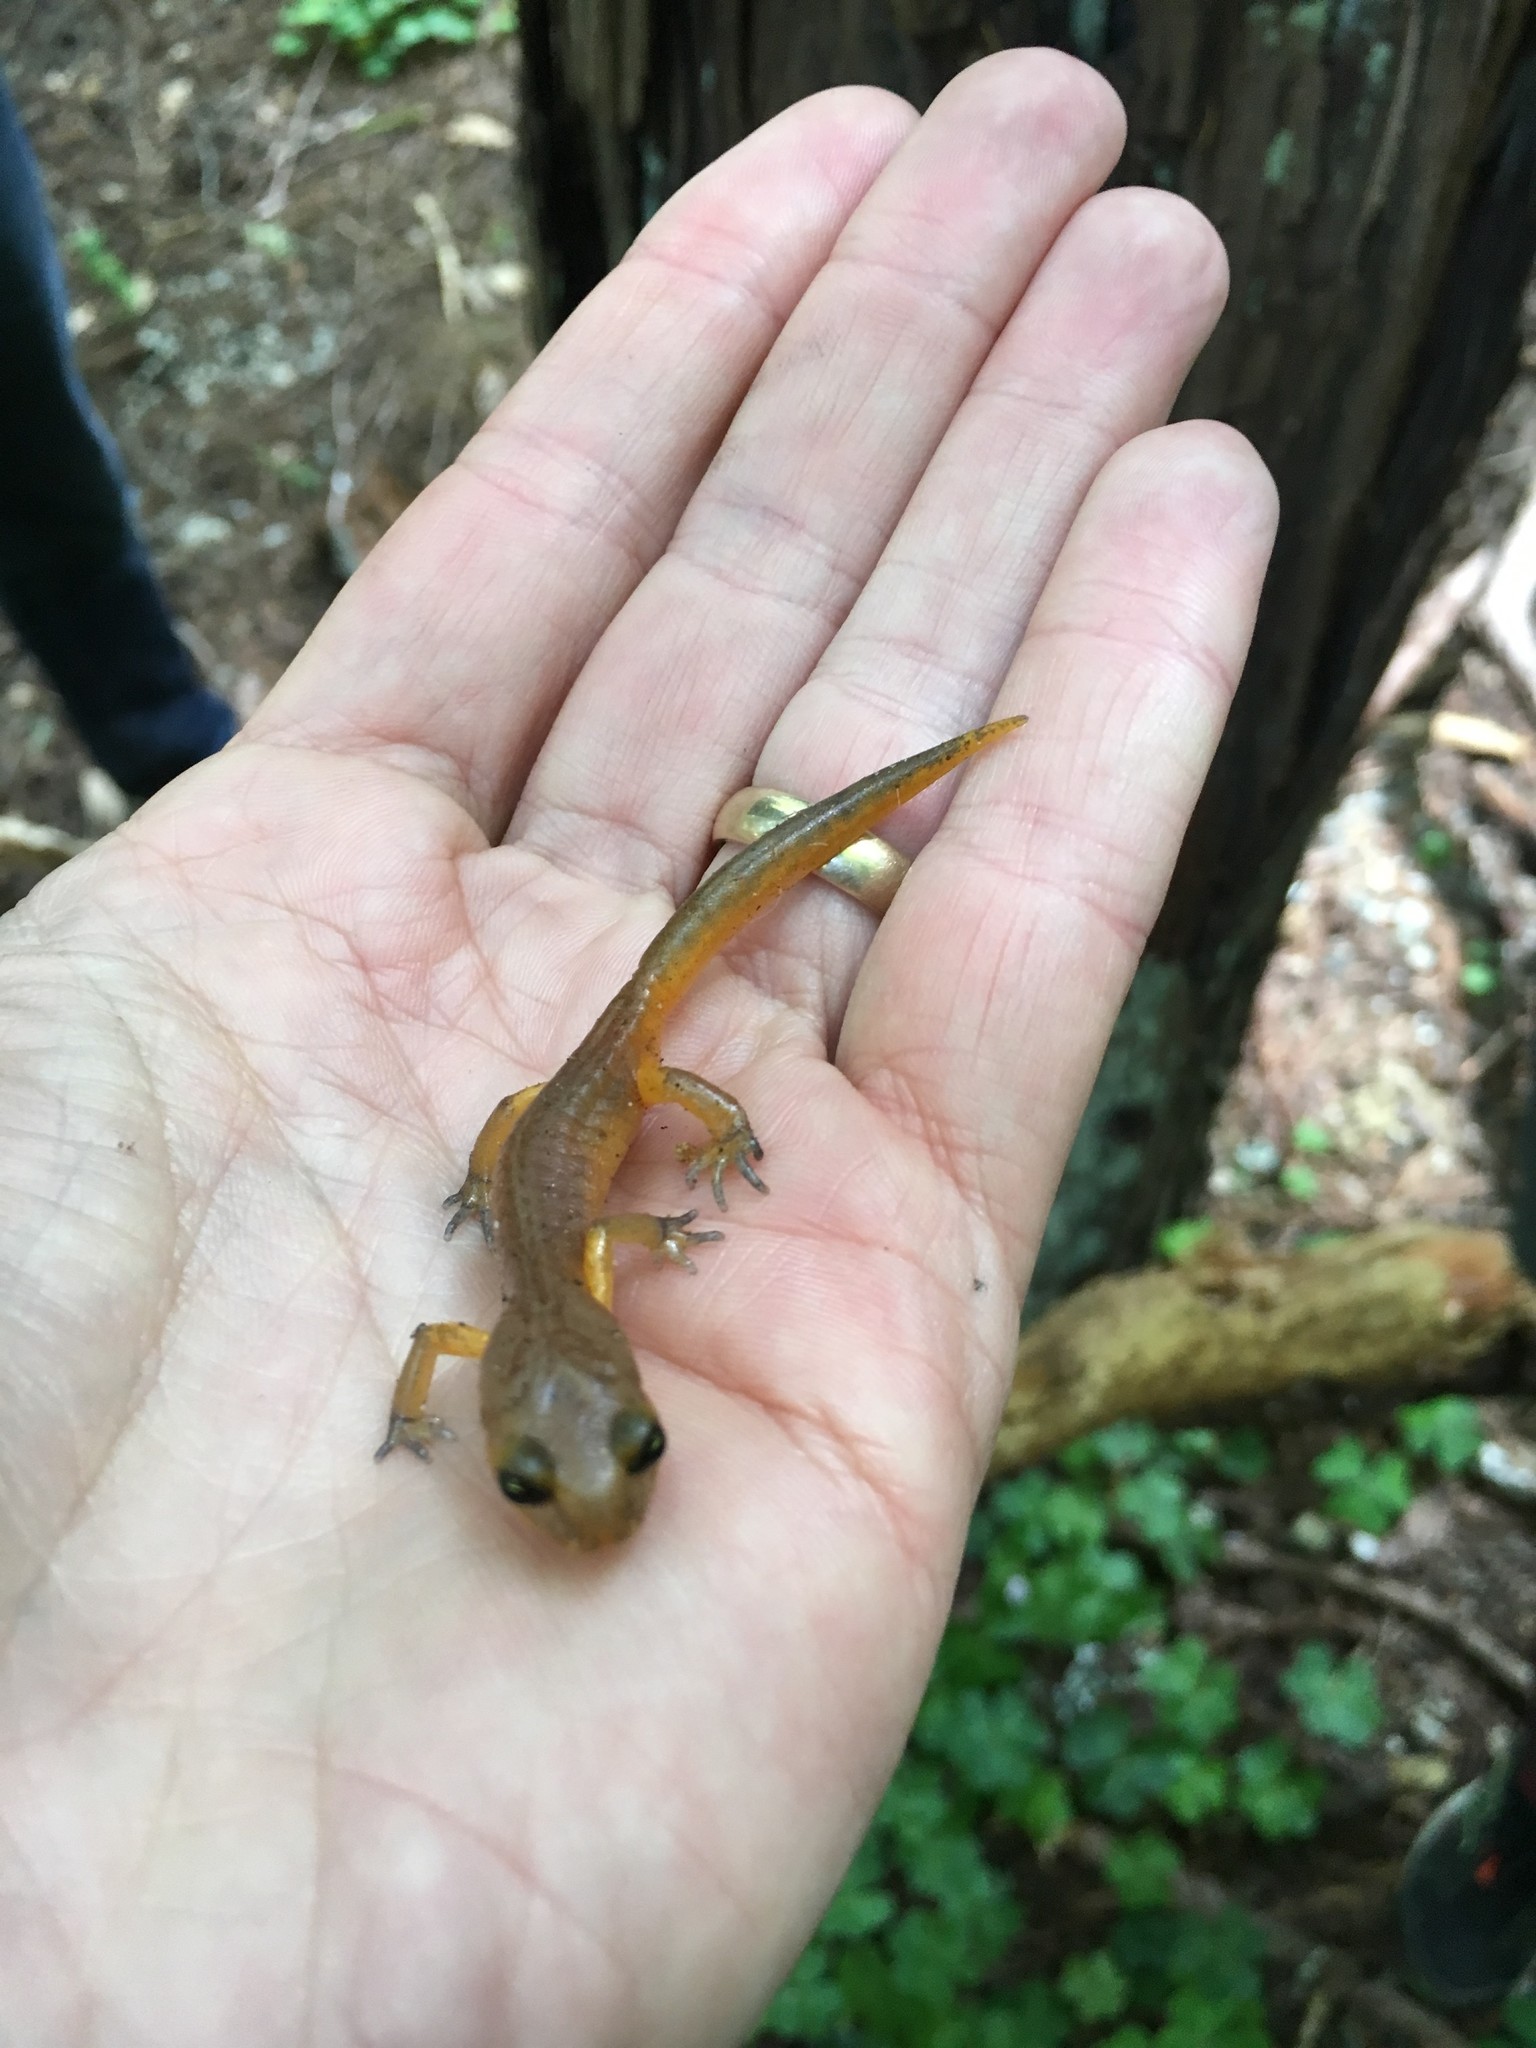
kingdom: Animalia
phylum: Chordata
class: Amphibia
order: Caudata
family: Plethodontidae
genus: Ensatina
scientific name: Ensatina eschscholtzii
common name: Ensatina
